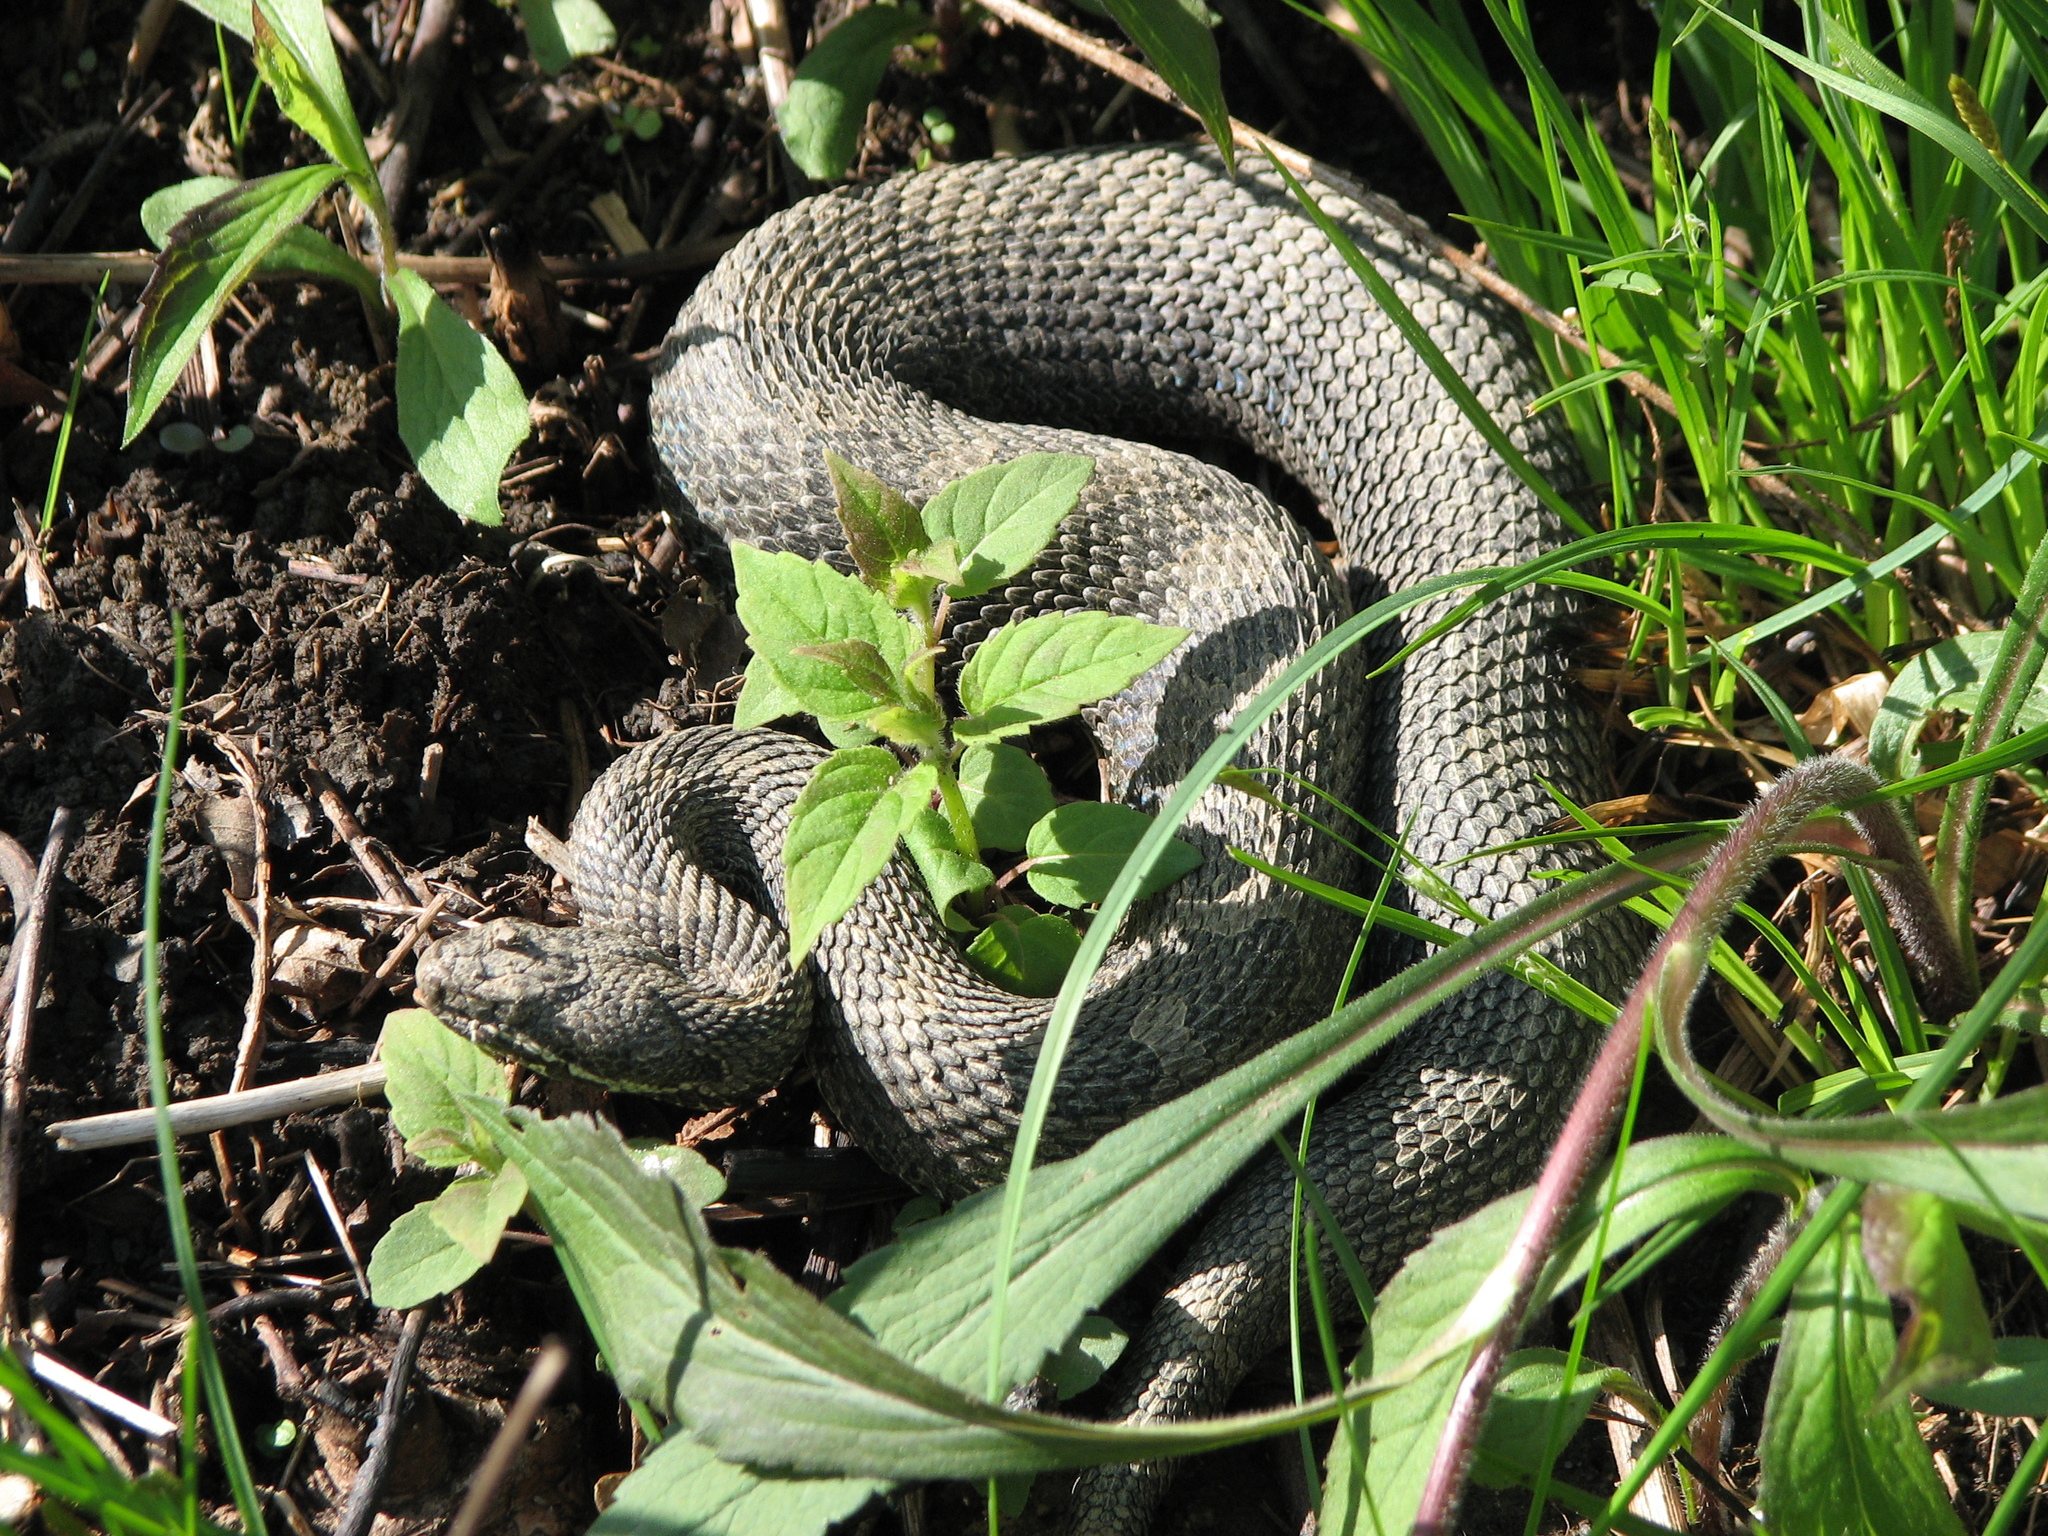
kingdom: Animalia
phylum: Chordata
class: Squamata
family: Viperidae
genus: Sistrurus
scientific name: Sistrurus catenatus
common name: Massasauga
